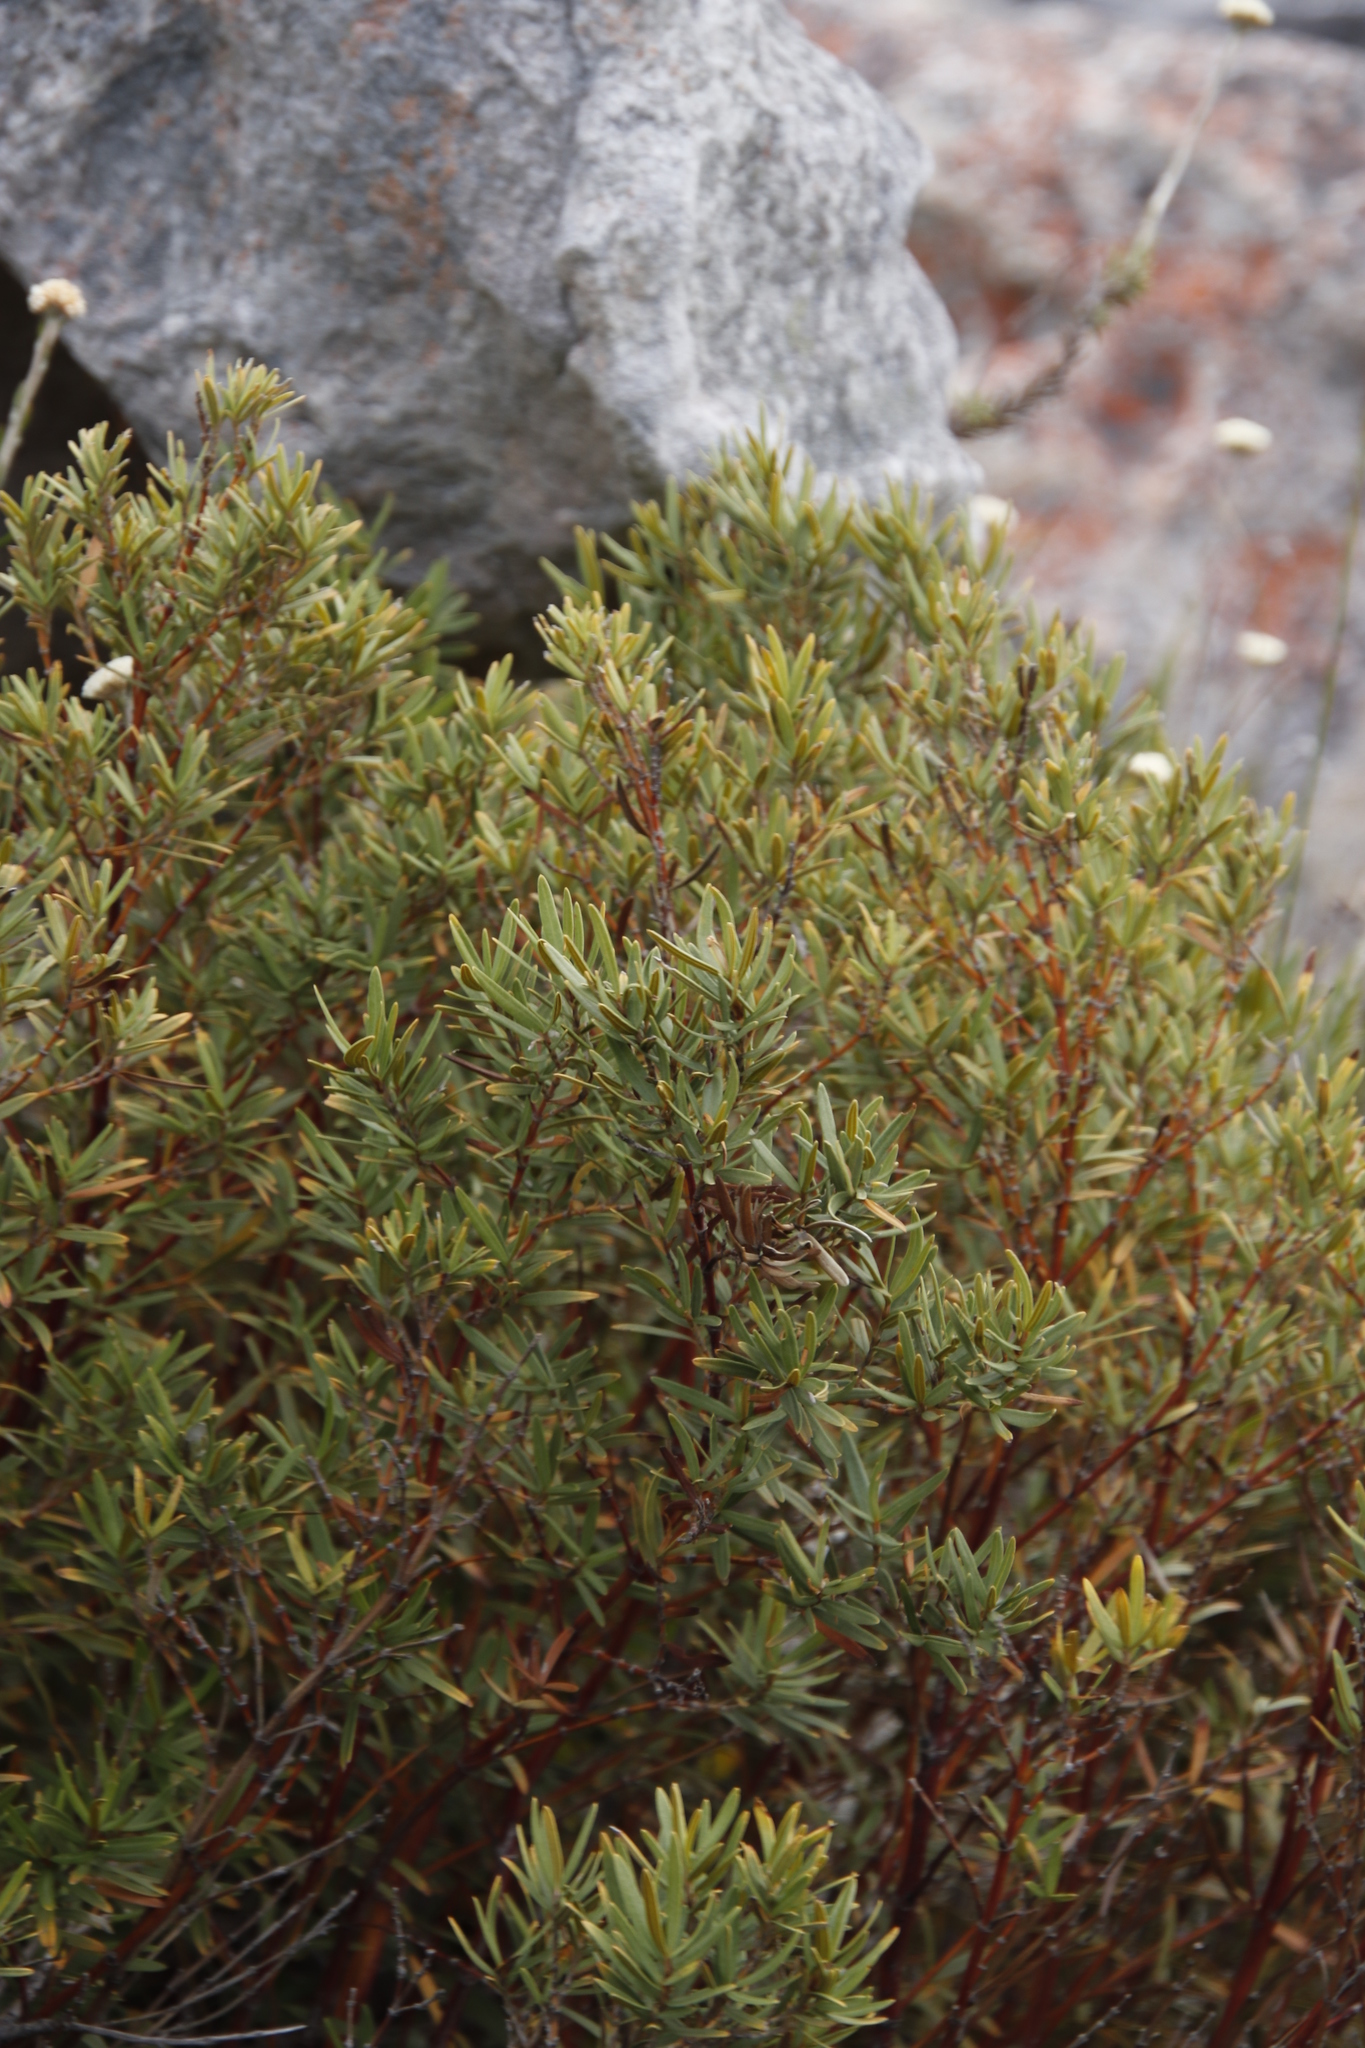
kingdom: Plantae
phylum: Tracheophyta
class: Magnoliopsida
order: Cornales
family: Grubbiaceae
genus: Grubbia
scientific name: Grubbia tomentosa
